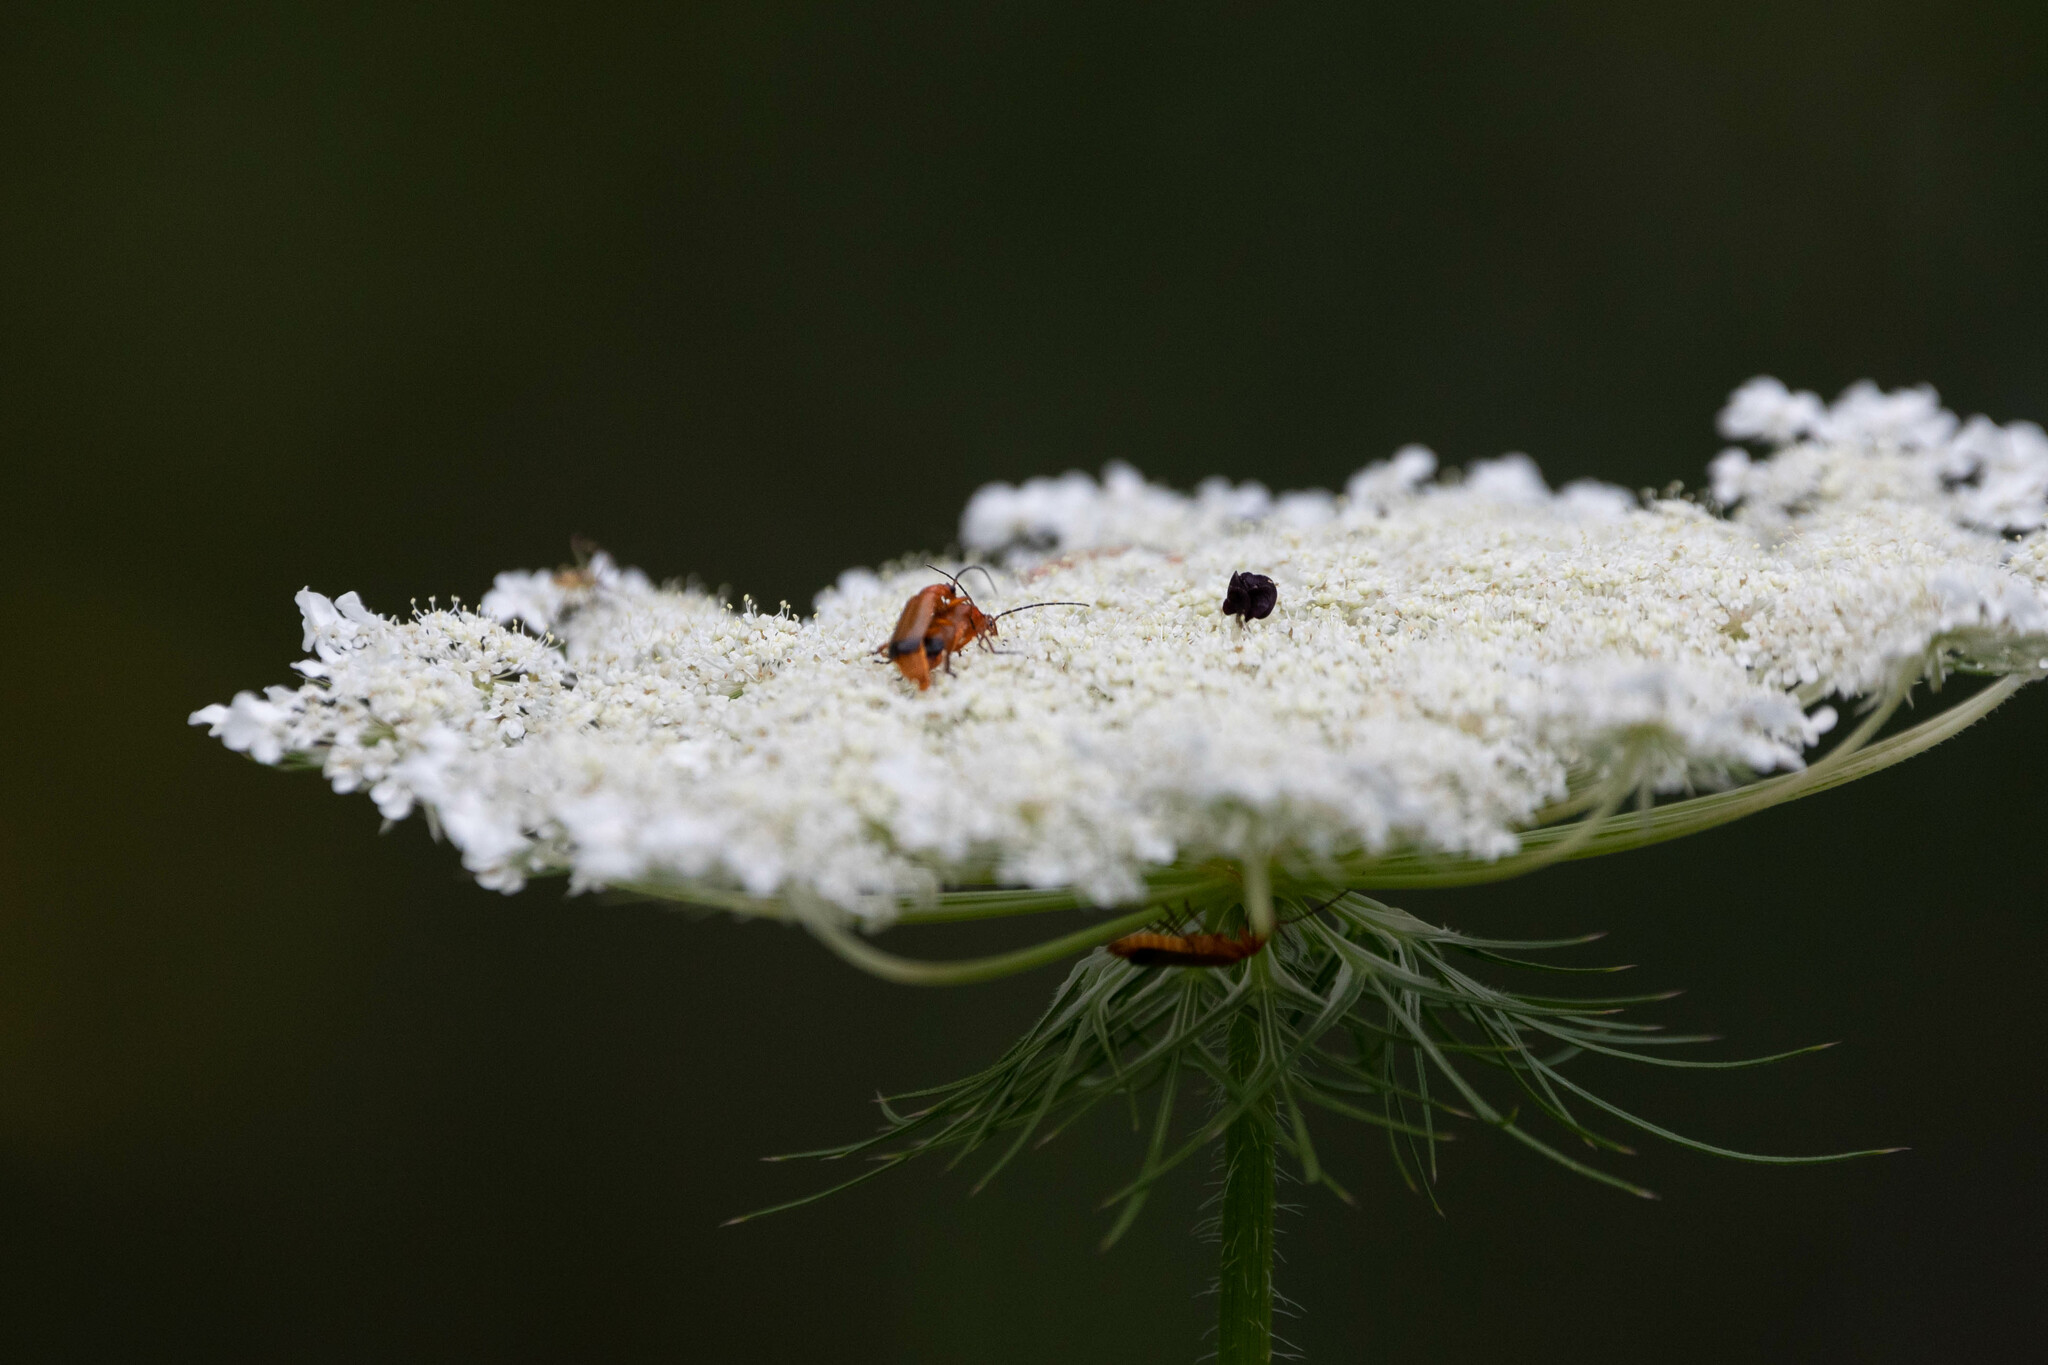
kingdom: Animalia
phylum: Arthropoda
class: Insecta
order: Coleoptera
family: Cantharidae
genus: Rhagonycha
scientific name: Rhagonycha fulva
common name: Common red soldier beetle
